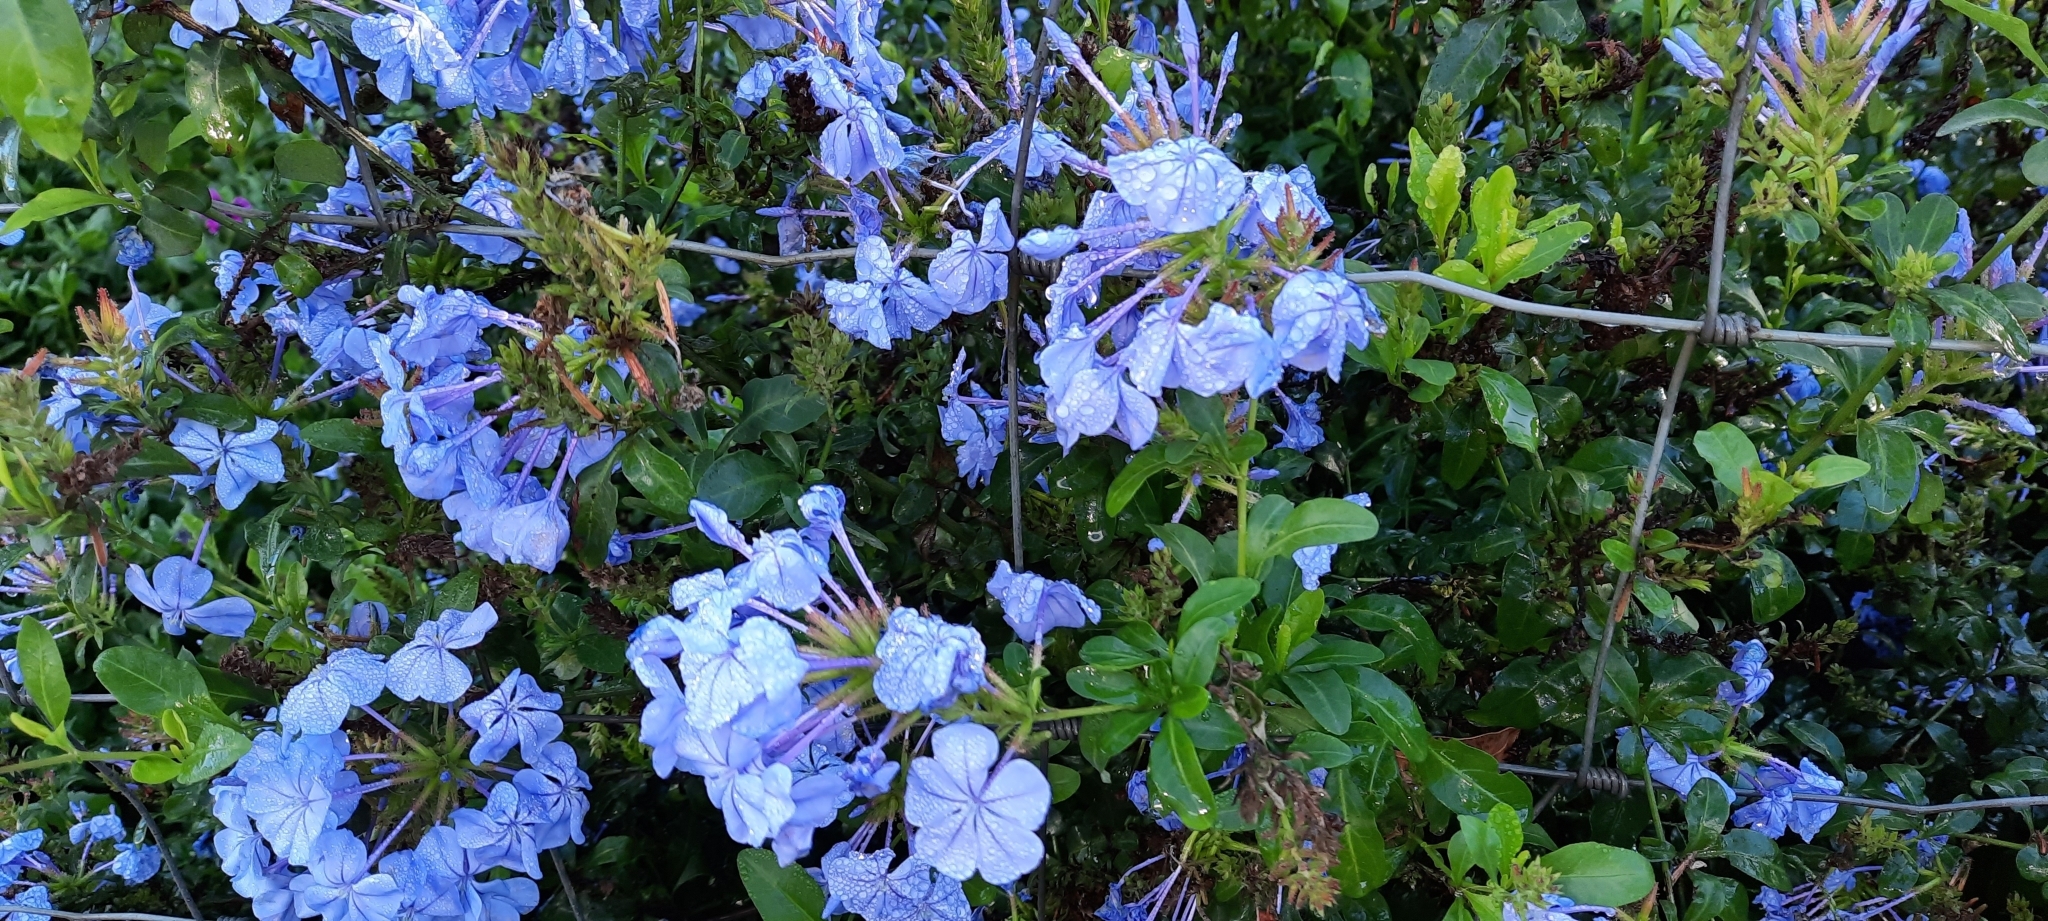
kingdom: Plantae
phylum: Tracheophyta
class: Magnoliopsida
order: Caryophyllales
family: Plumbaginaceae
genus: Plumbago
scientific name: Plumbago auriculata
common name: Cape leadwort
